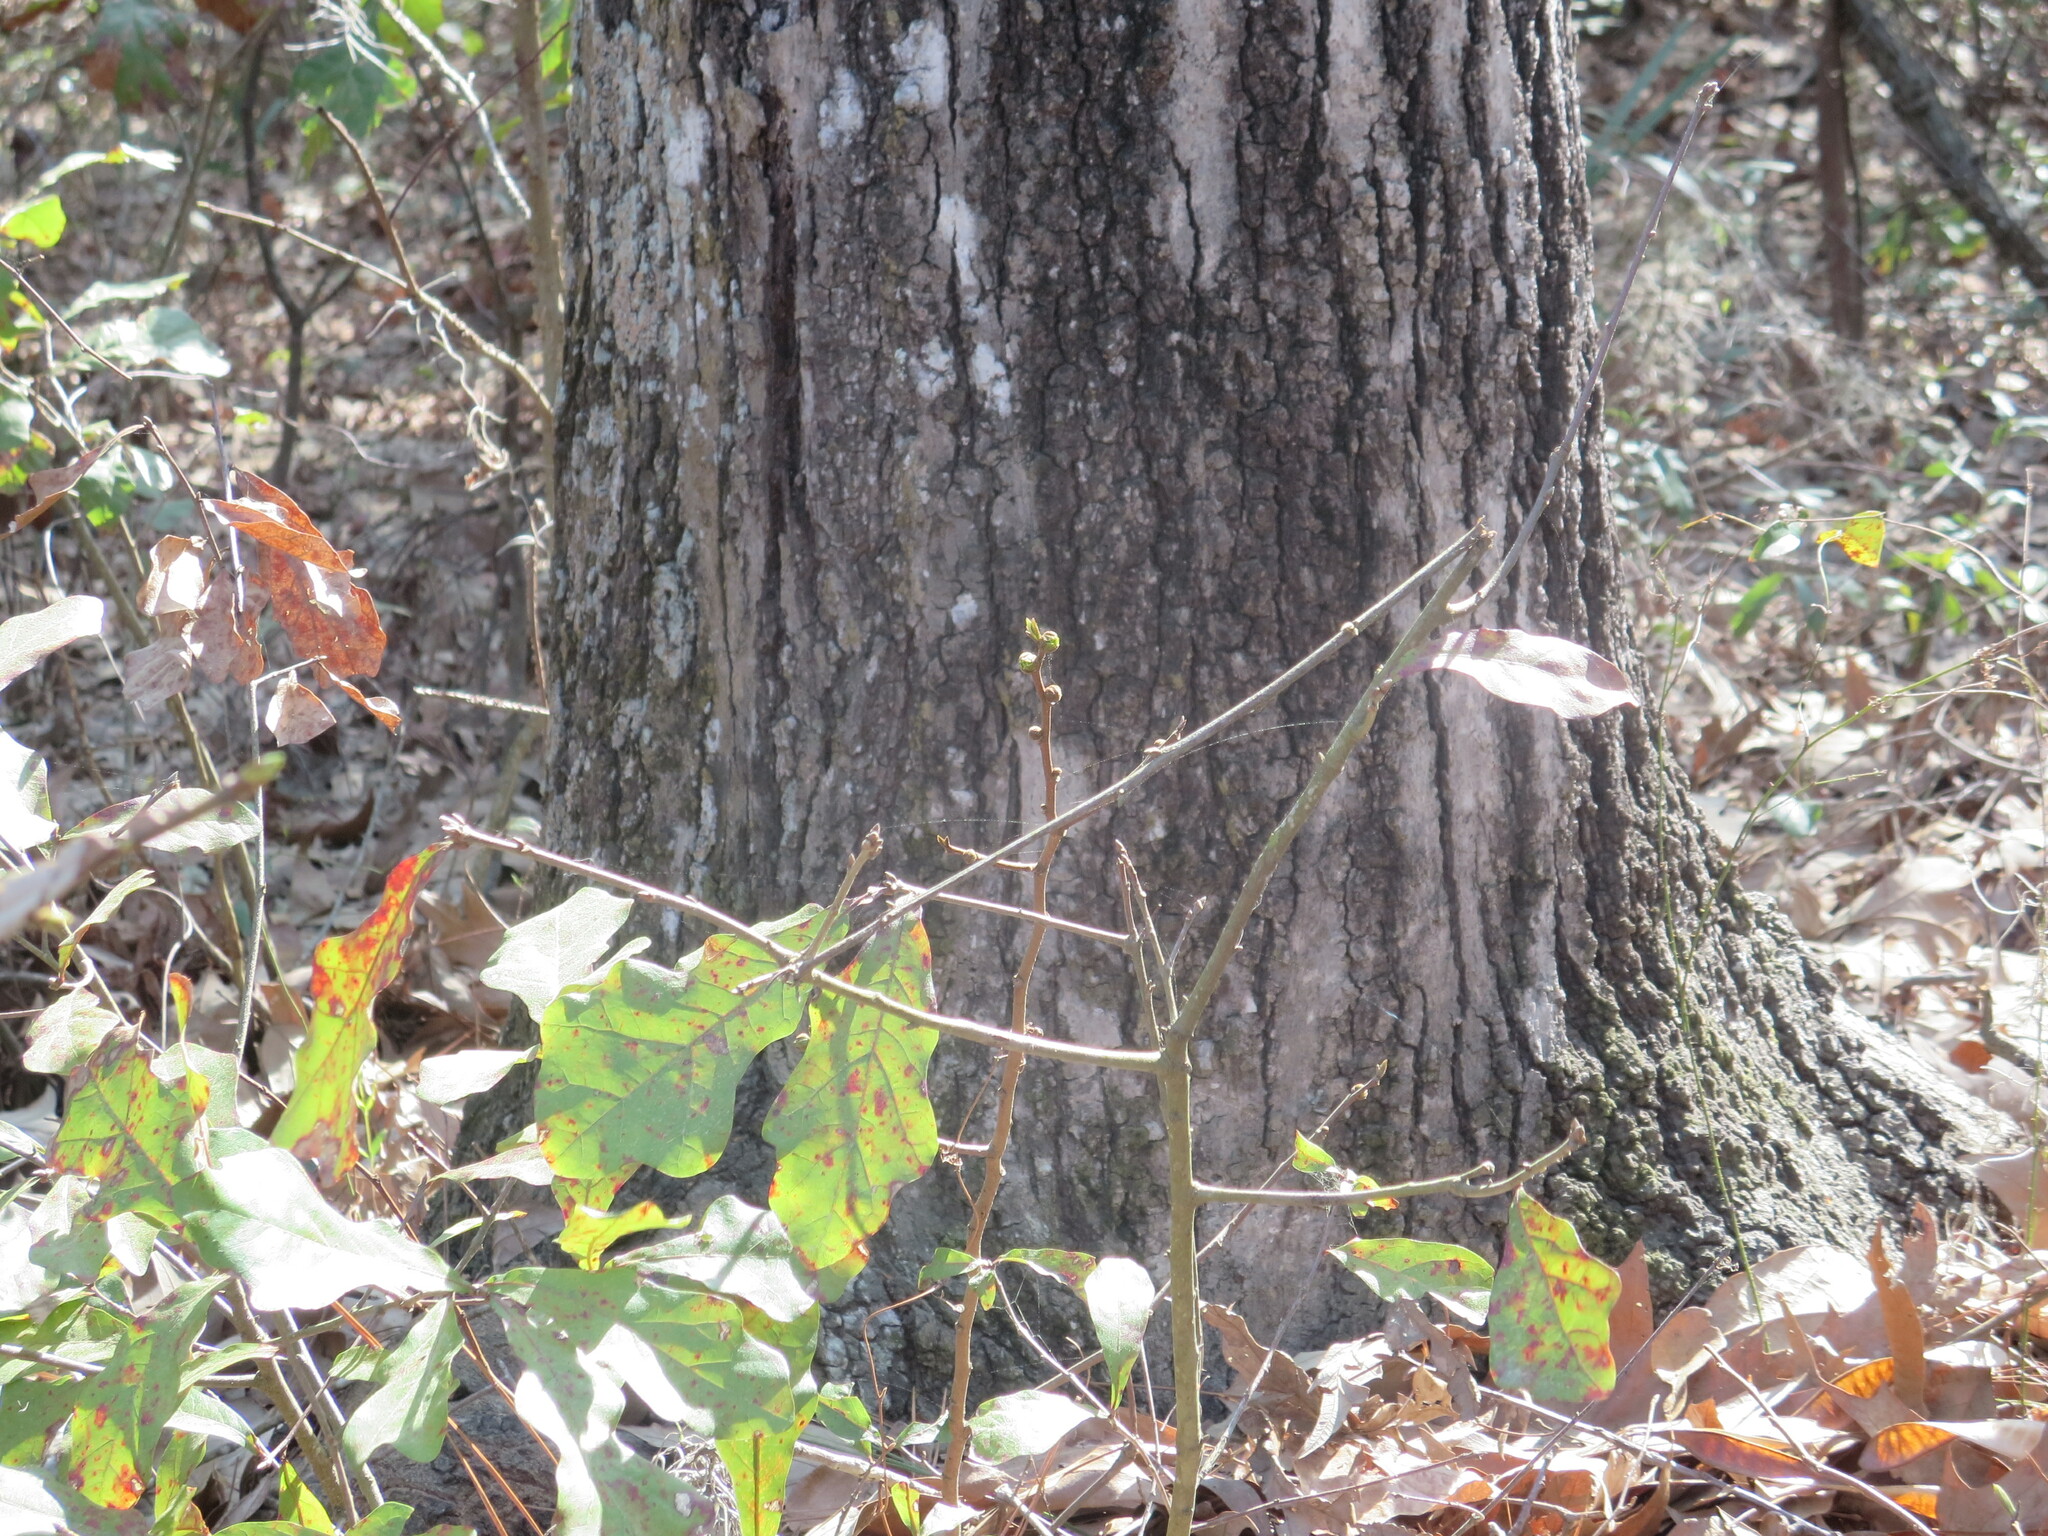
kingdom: Plantae
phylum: Tracheophyta
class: Magnoliopsida
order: Magnoliales
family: Annonaceae
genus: Asimina
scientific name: Asimina parviflora
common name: Dwarf pawpaw
